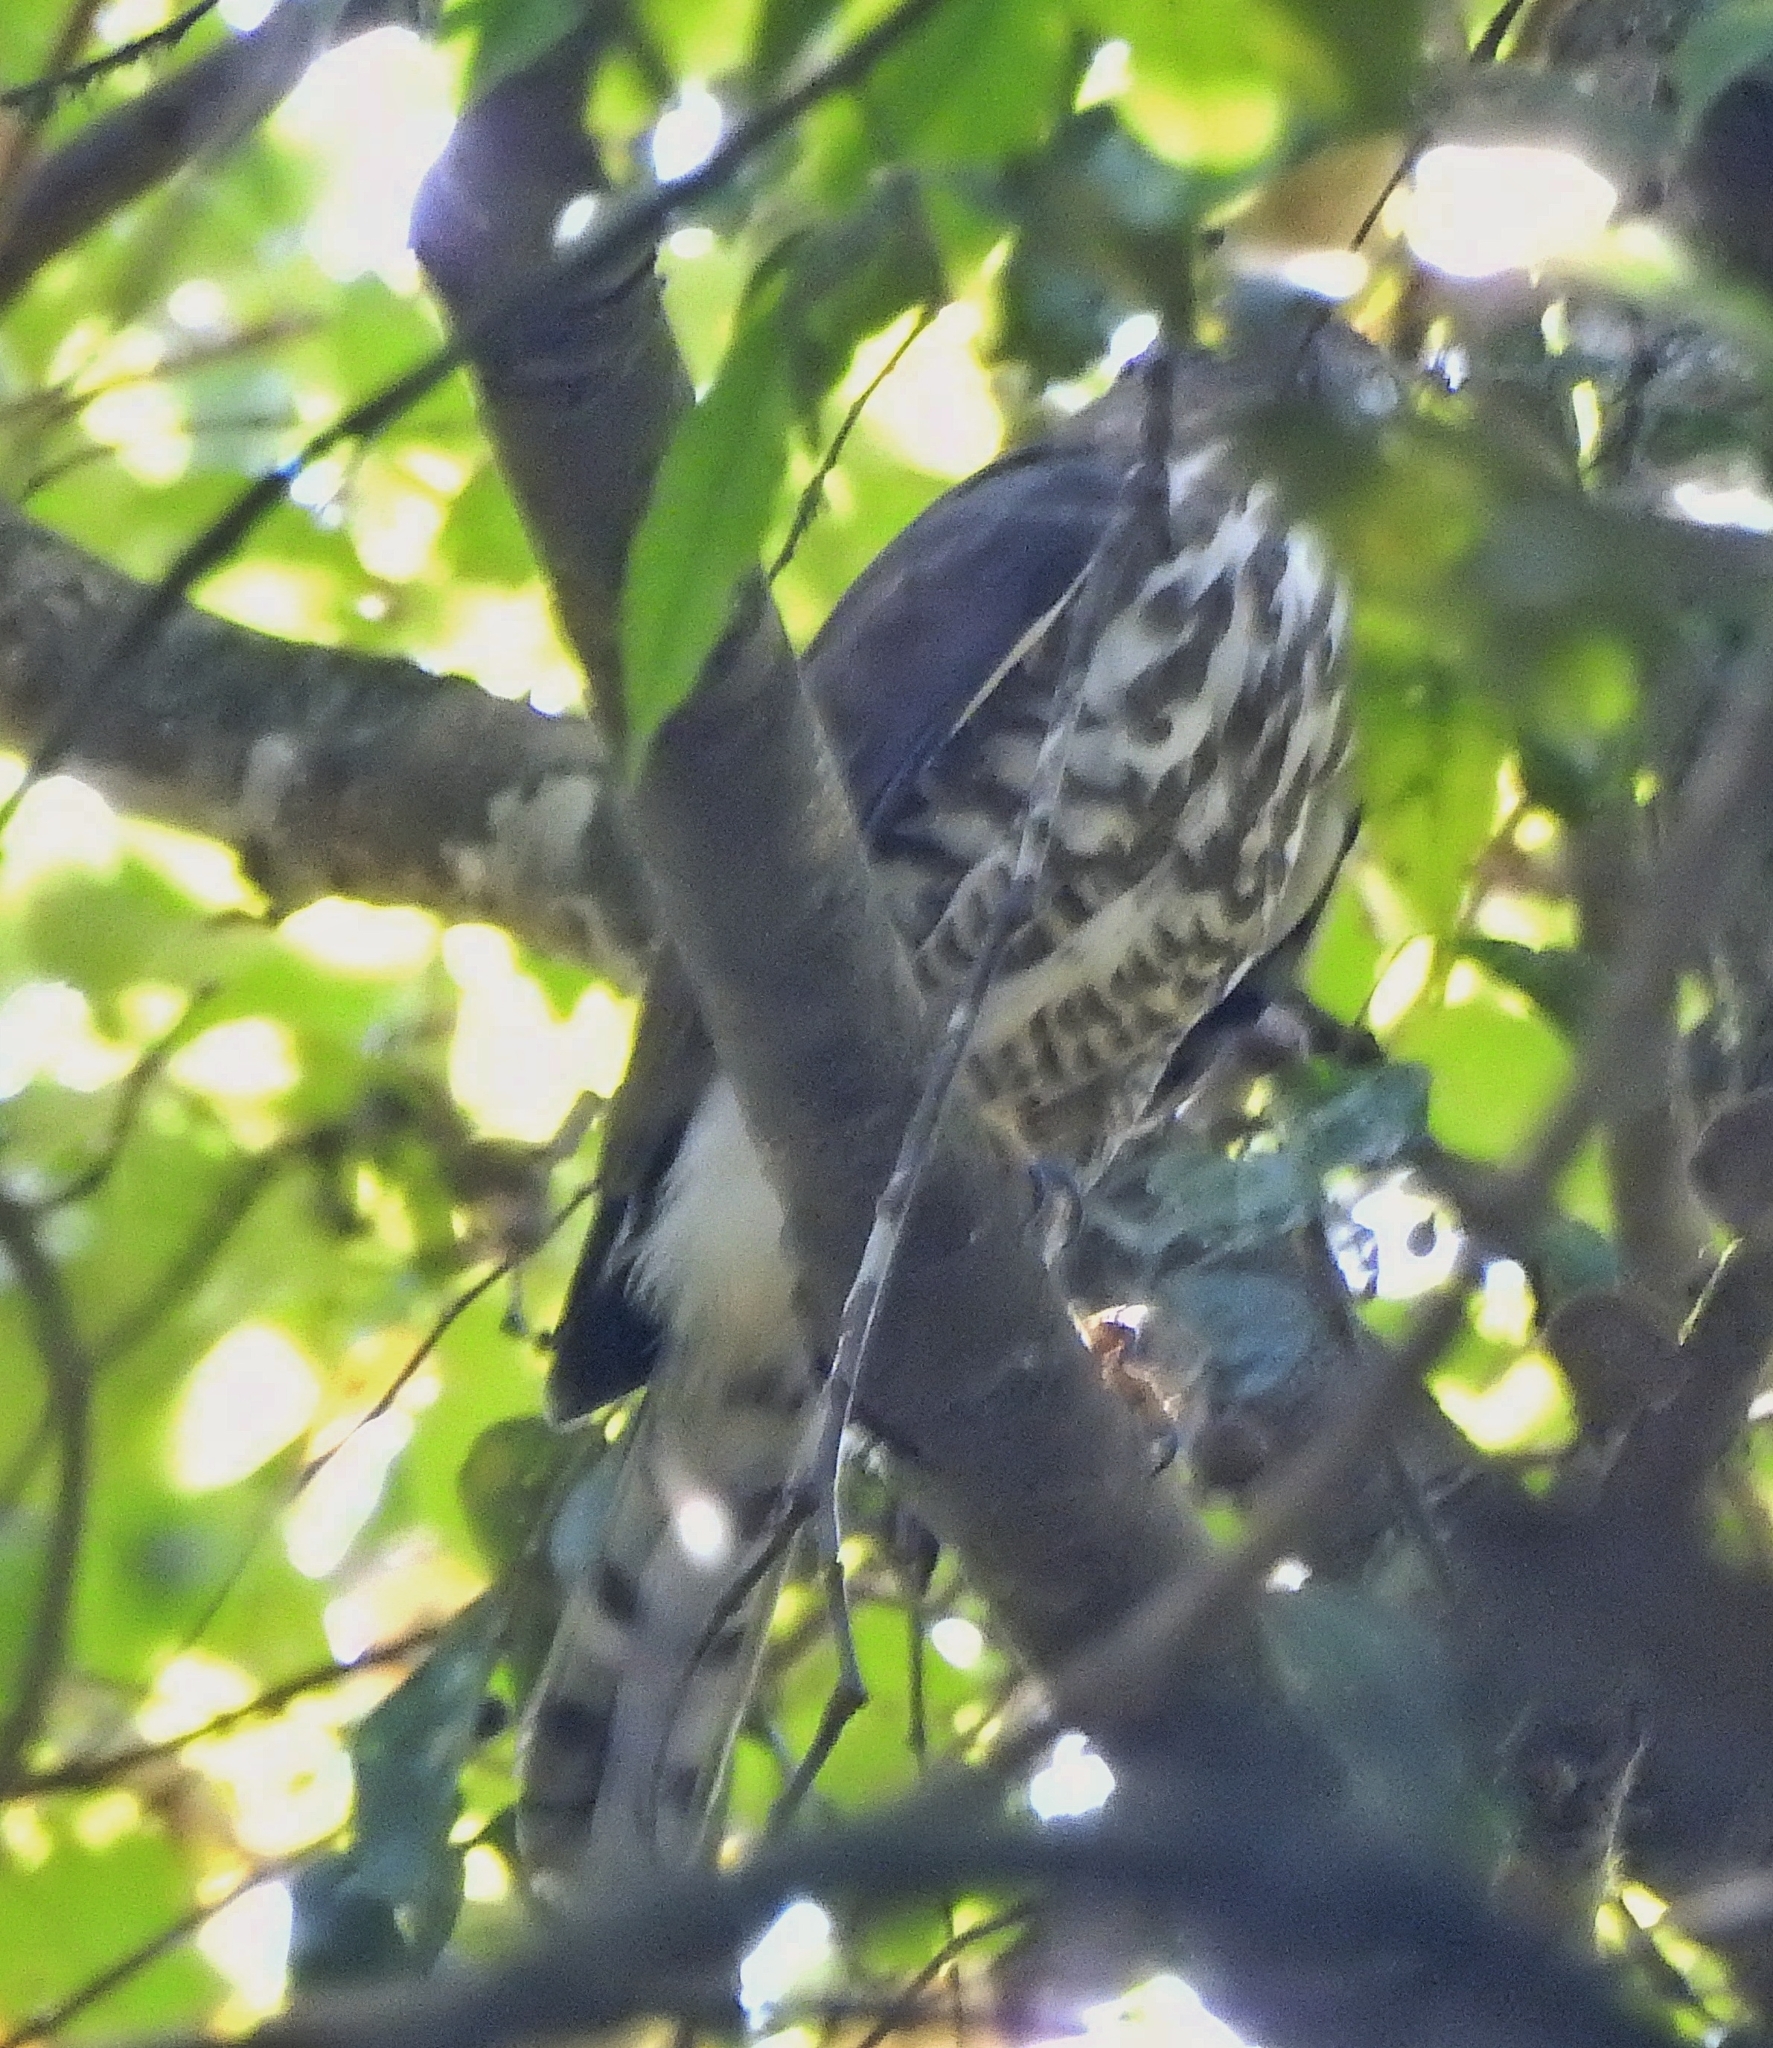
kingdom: Animalia
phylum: Chordata
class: Aves
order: Accipitriformes
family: Accipitridae
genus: Accipiter
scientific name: Accipiter trivirgatus
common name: Crested goshawk
